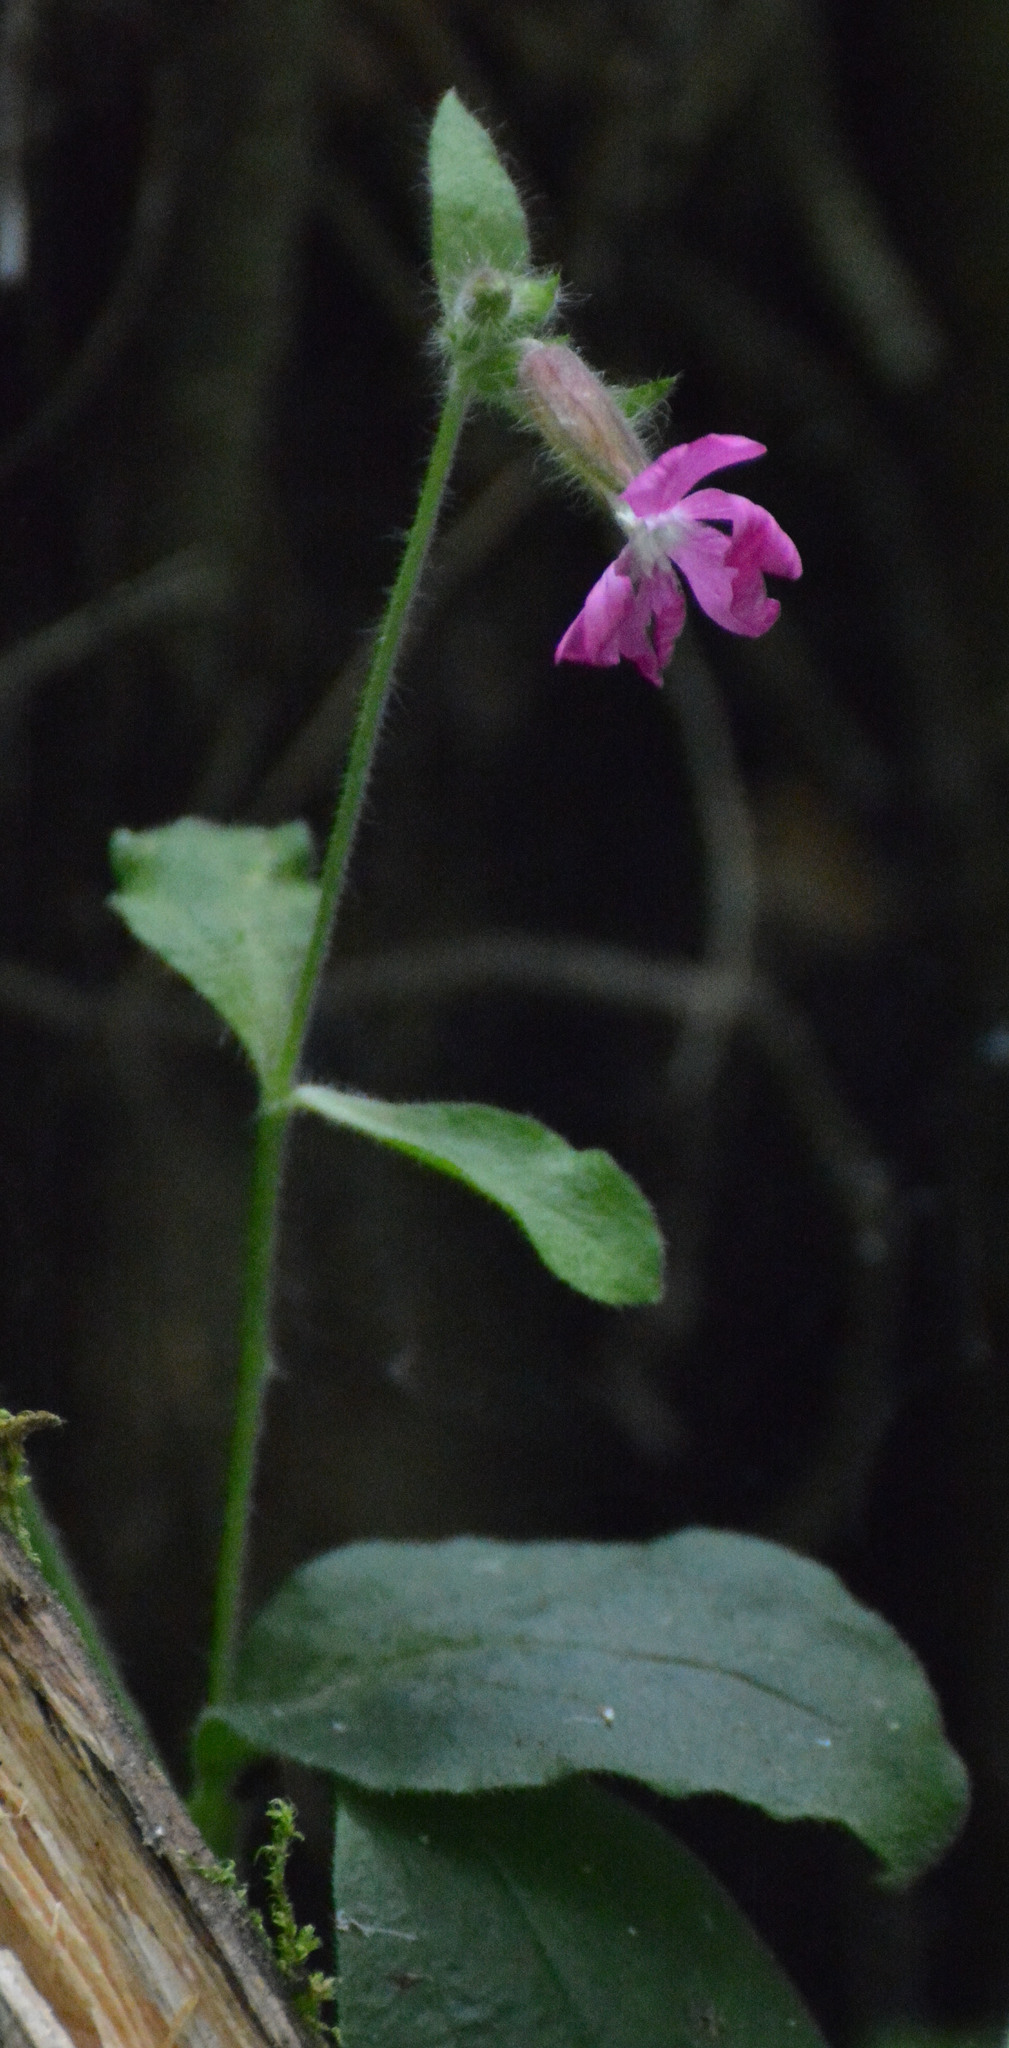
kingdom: Plantae
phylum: Tracheophyta
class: Magnoliopsida
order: Caryophyllales
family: Caryophyllaceae
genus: Silene
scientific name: Silene dioica
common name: Red campion
